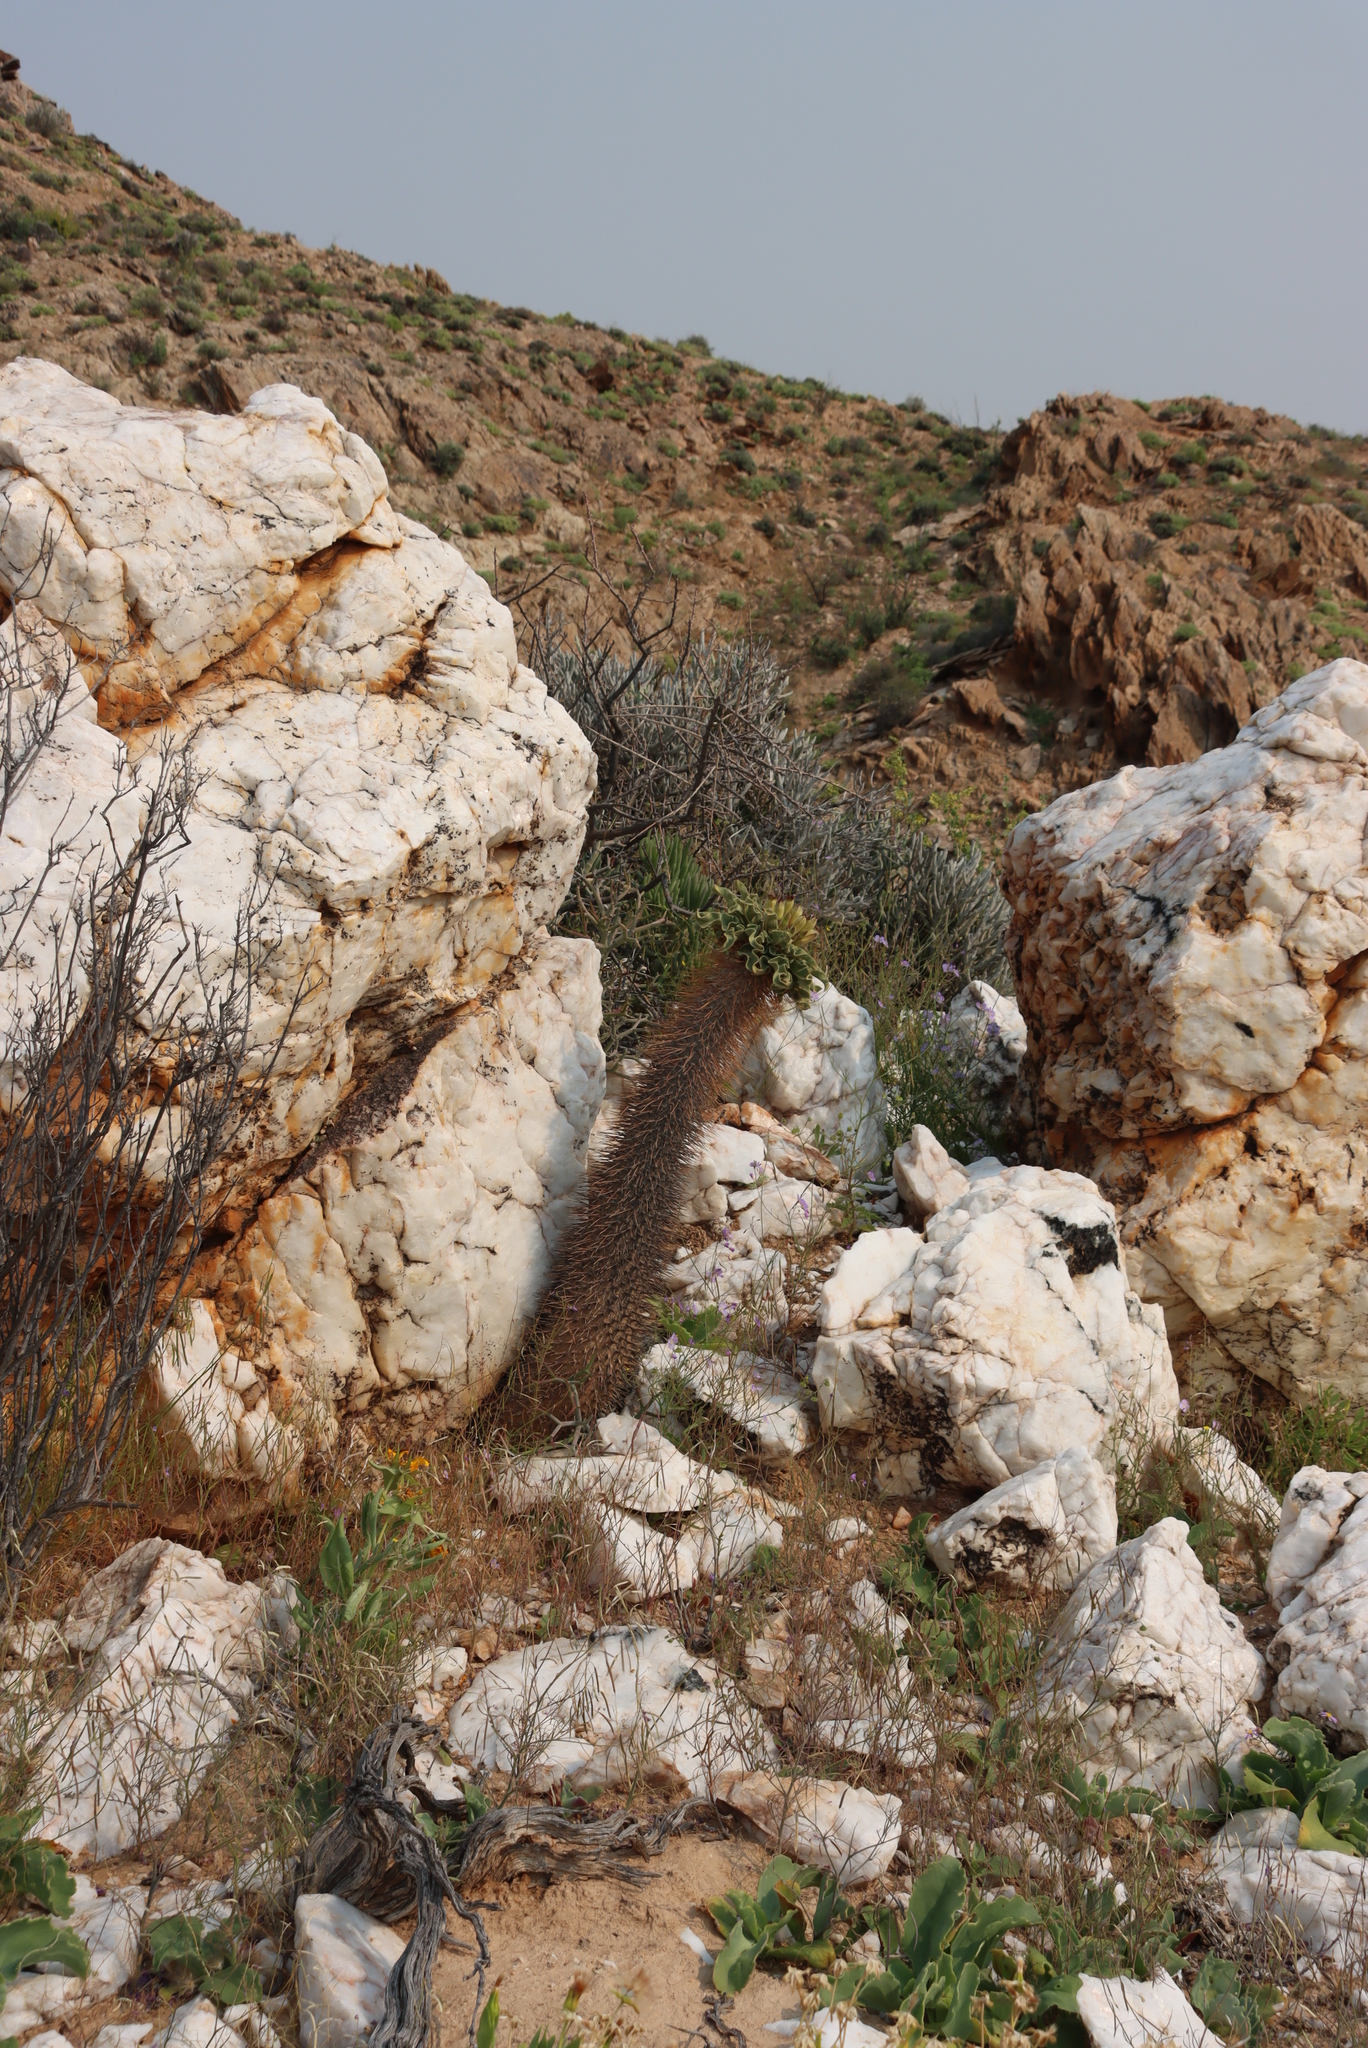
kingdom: Plantae
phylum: Tracheophyta
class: Magnoliopsida
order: Gentianales
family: Apocynaceae
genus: Pachypodium
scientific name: Pachypodium namaquanum
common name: Elephant's trunk
